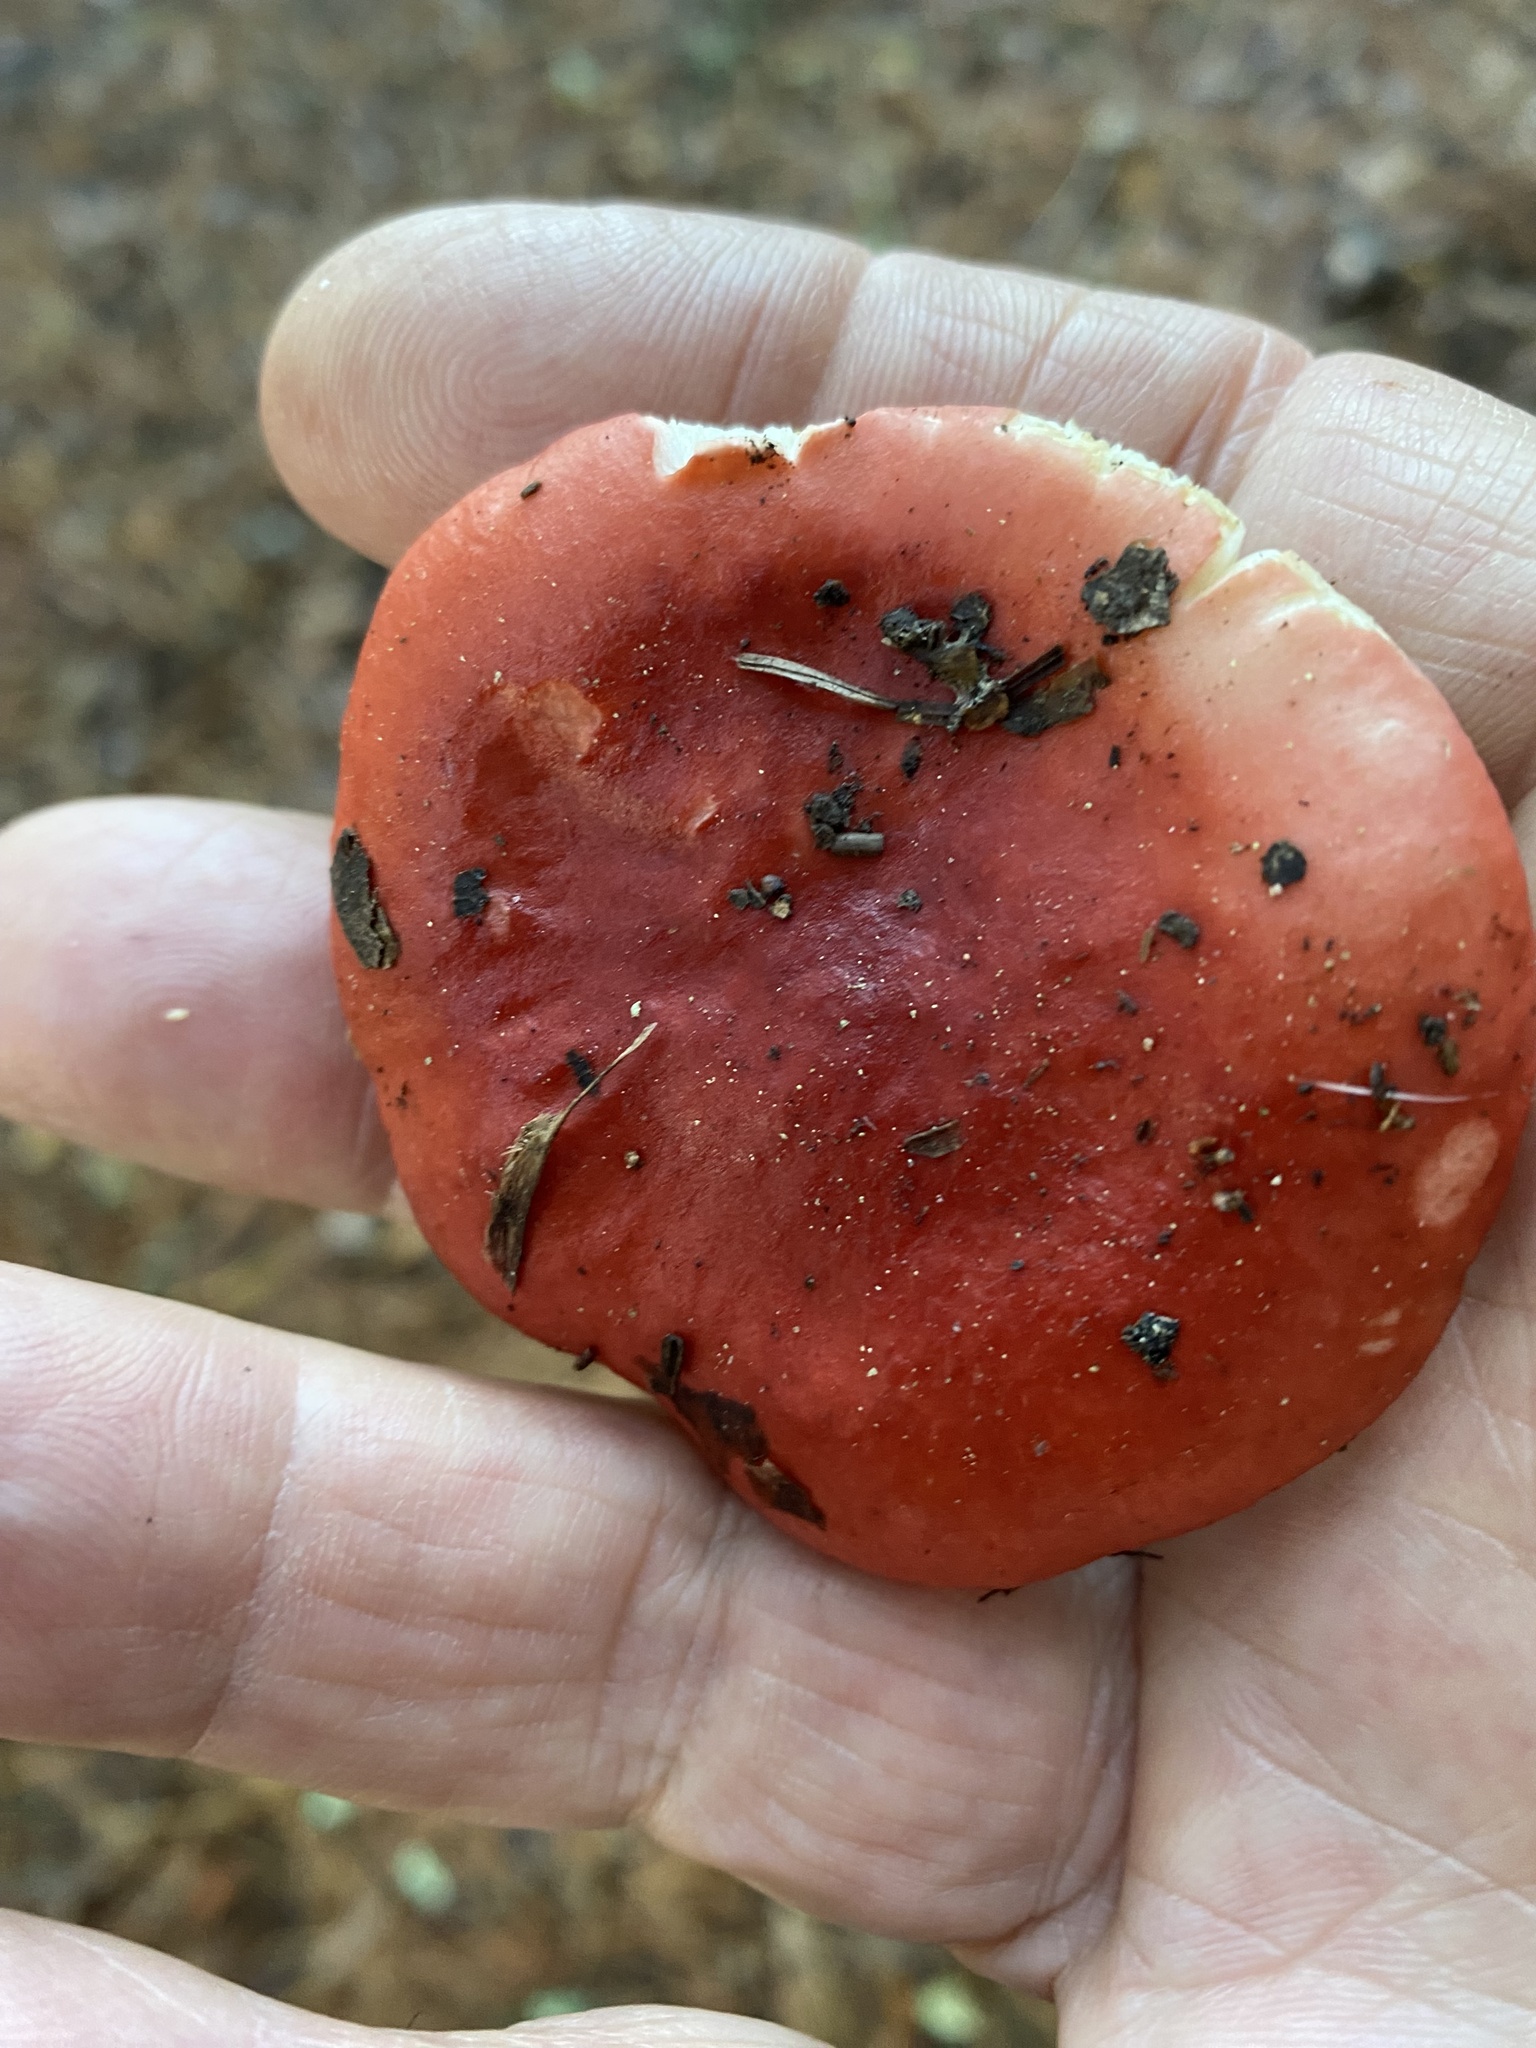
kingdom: Fungi
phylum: Basidiomycota
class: Agaricomycetes
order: Russulales
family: Russulaceae
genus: Russula
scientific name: Russula rhodocephala
